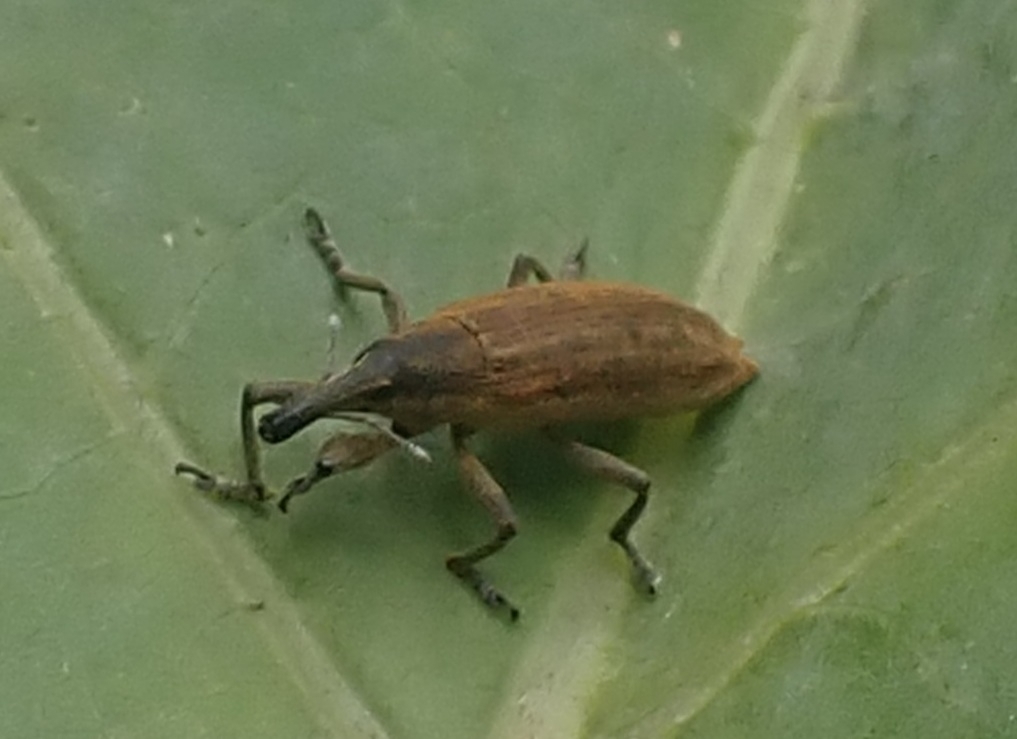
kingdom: Animalia
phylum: Arthropoda
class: Insecta
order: Coleoptera
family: Curculionidae
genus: Lixus
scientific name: Lixus iridis
